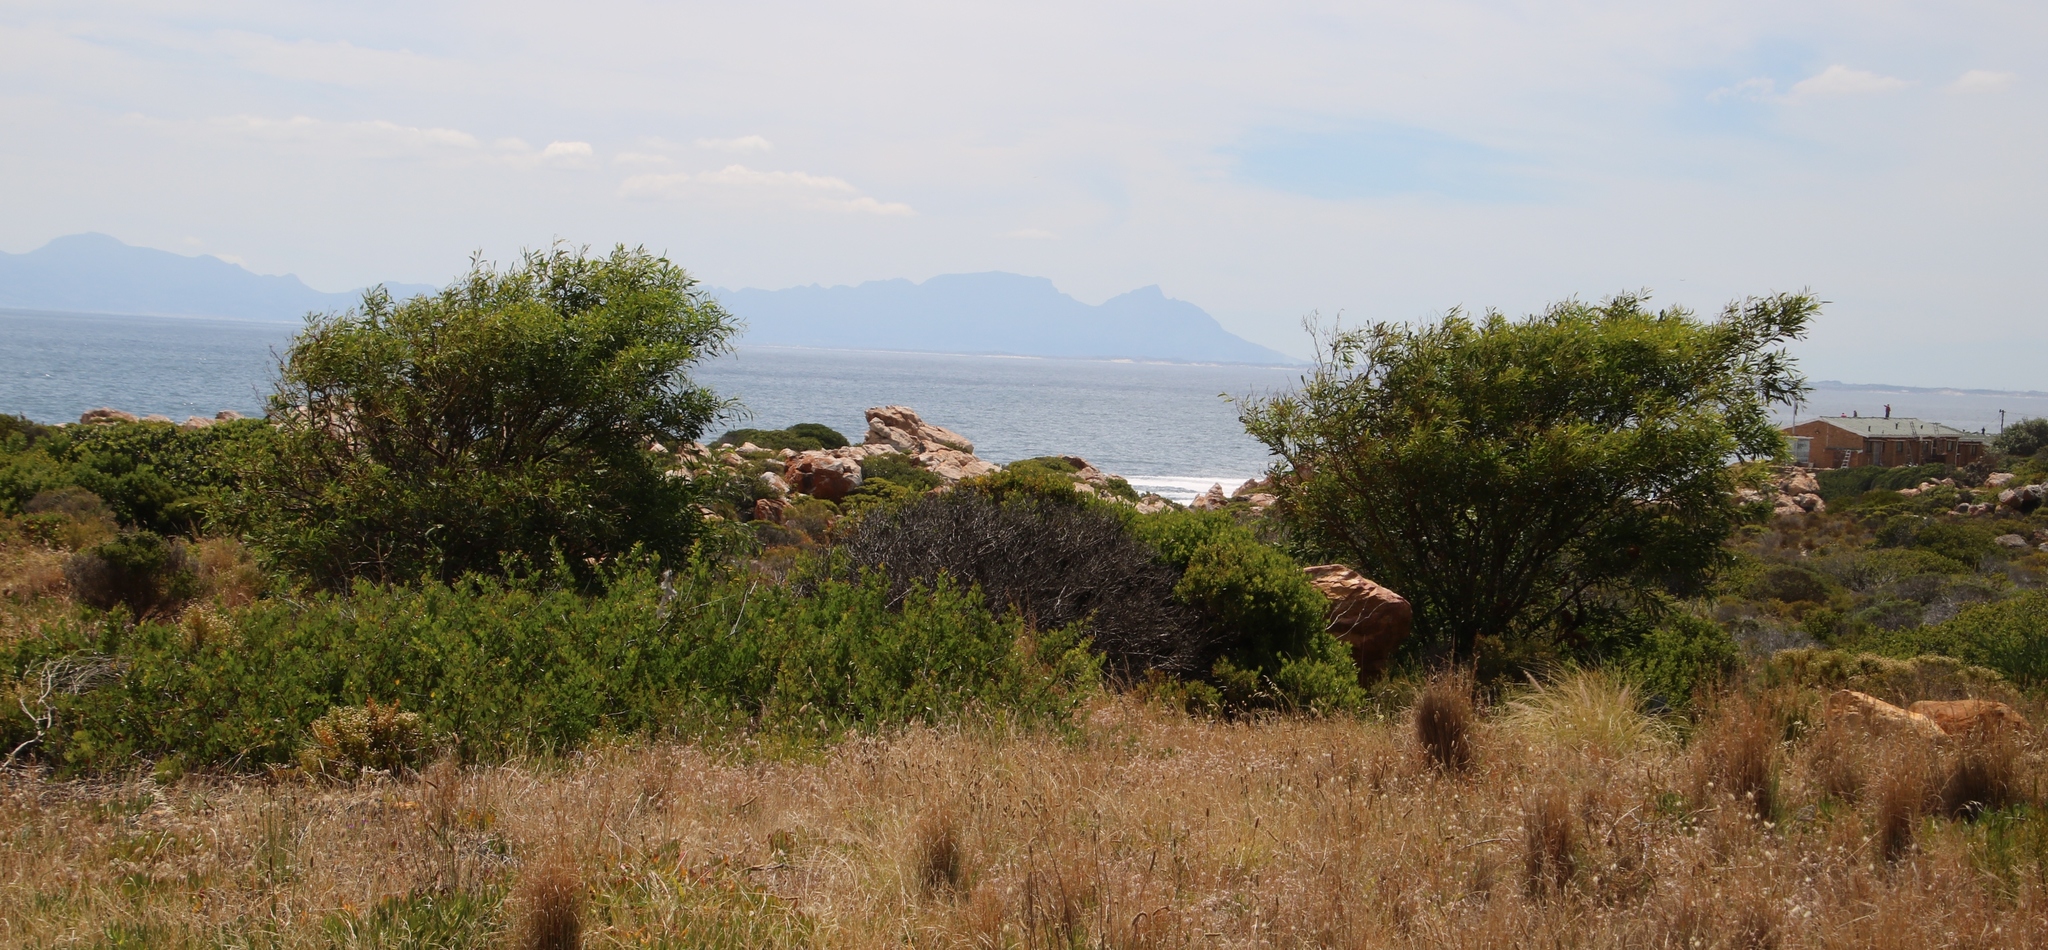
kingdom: Plantae
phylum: Tracheophyta
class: Magnoliopsida
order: Fabales
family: Fabaceae
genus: Acacia
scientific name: Acacia saligna
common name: Orange wattle
